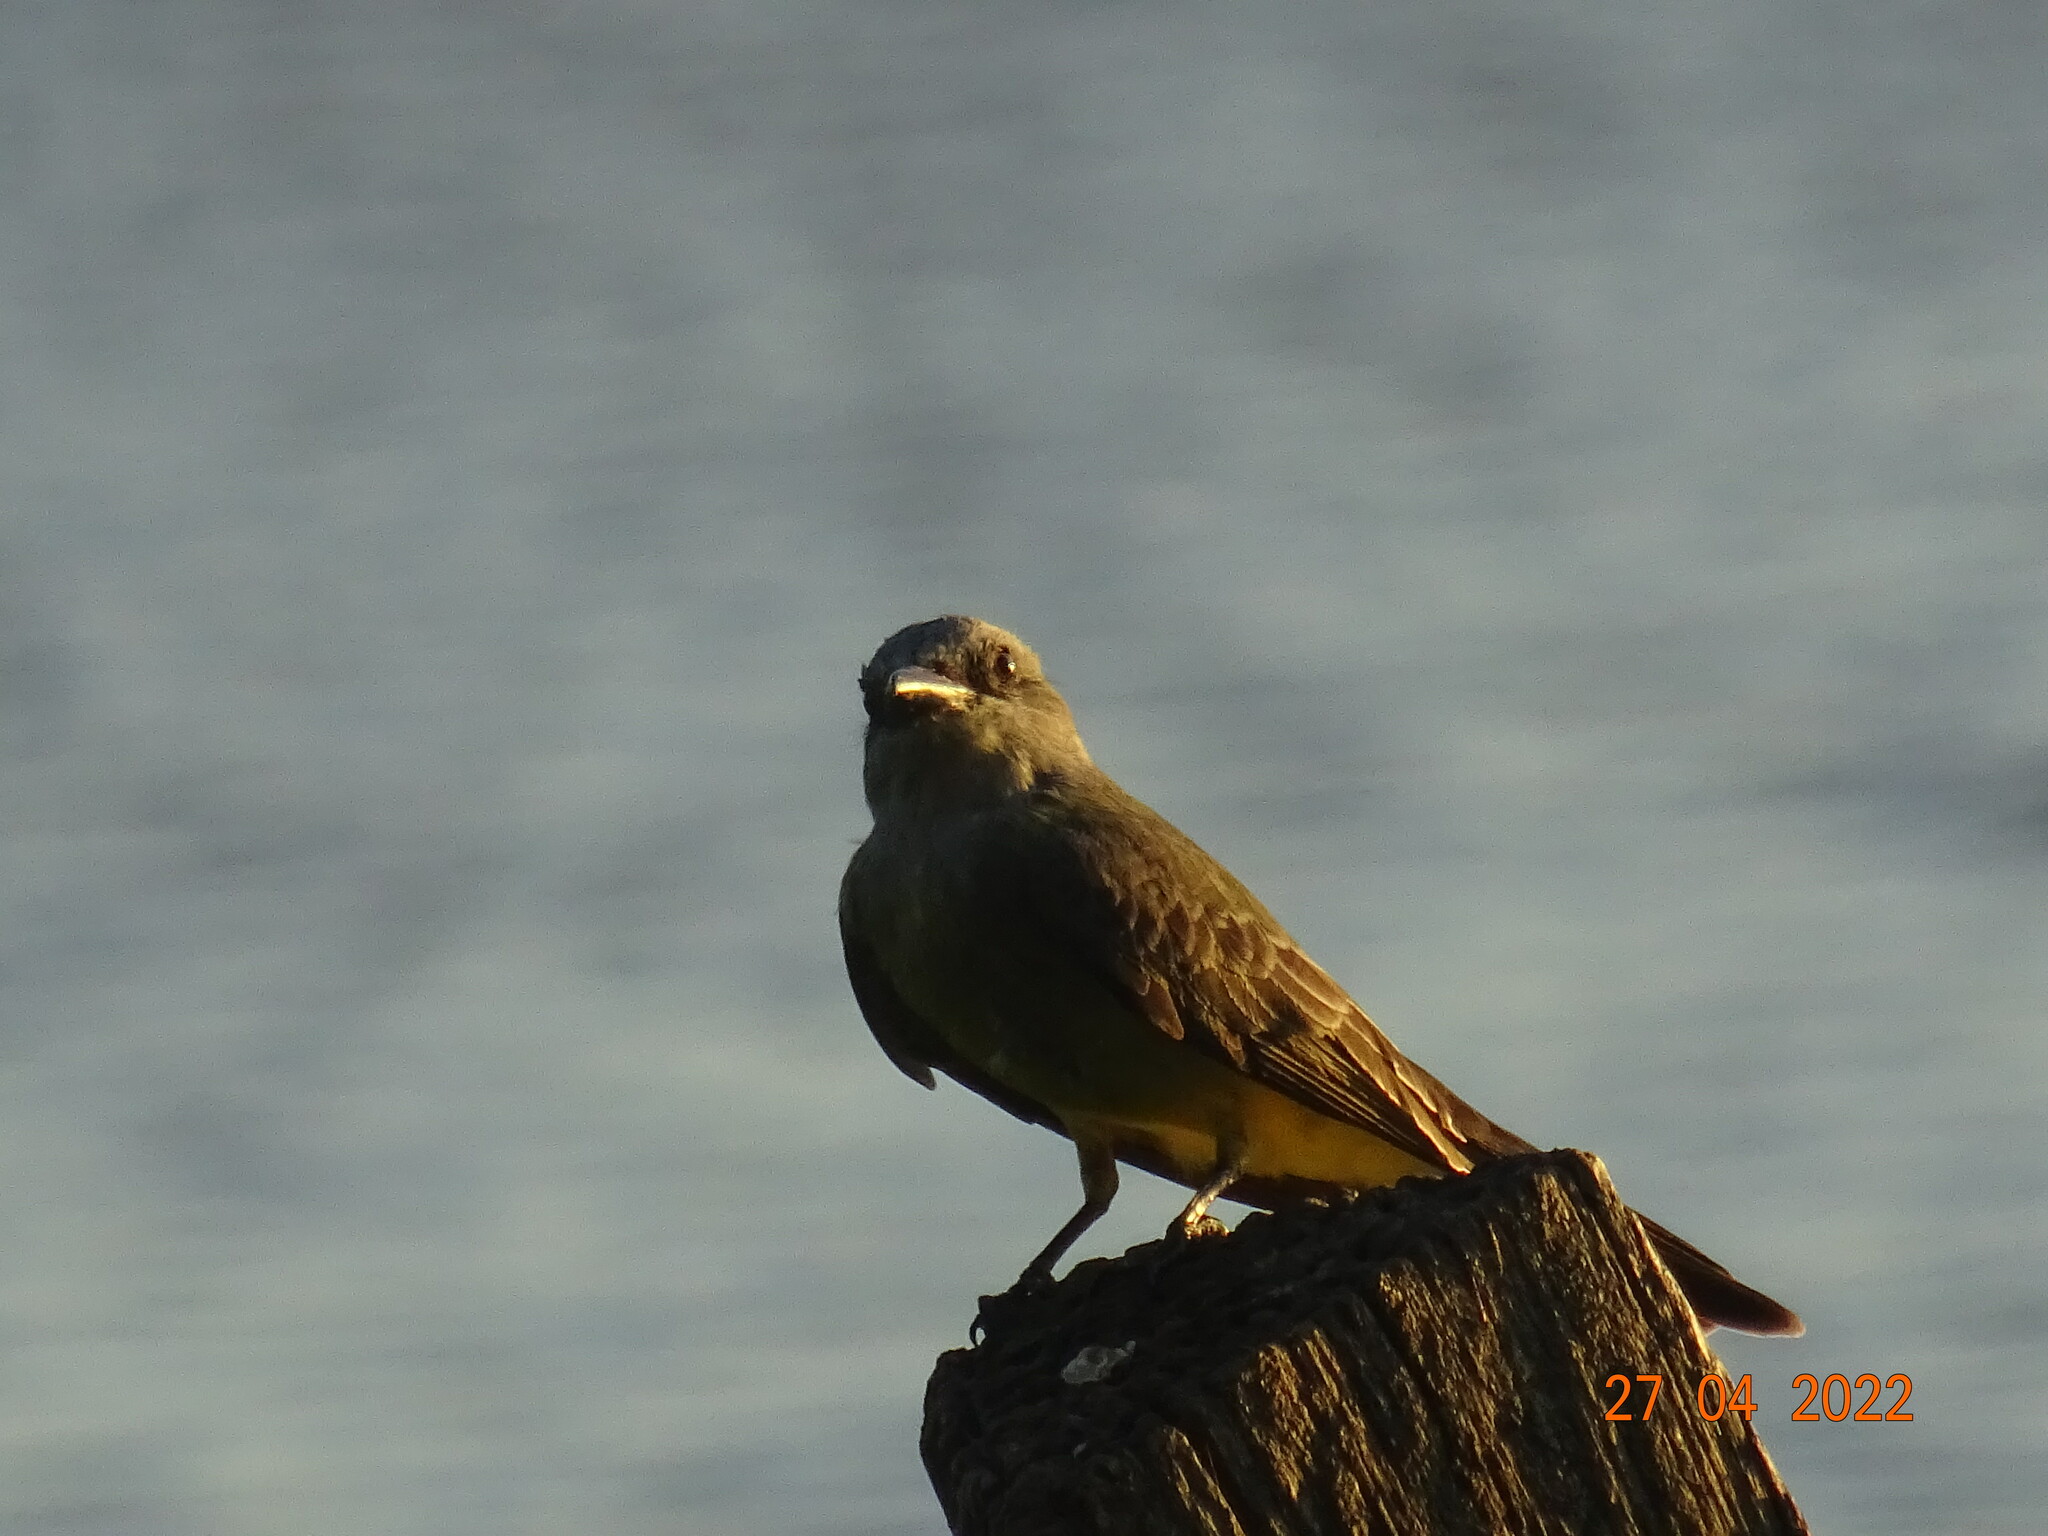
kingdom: Animalia
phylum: Chordata
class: Aves
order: Passeriformes
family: Tyrannidae
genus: Tyrannus
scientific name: Tyrannus melancholicus
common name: Tropical kingbird
